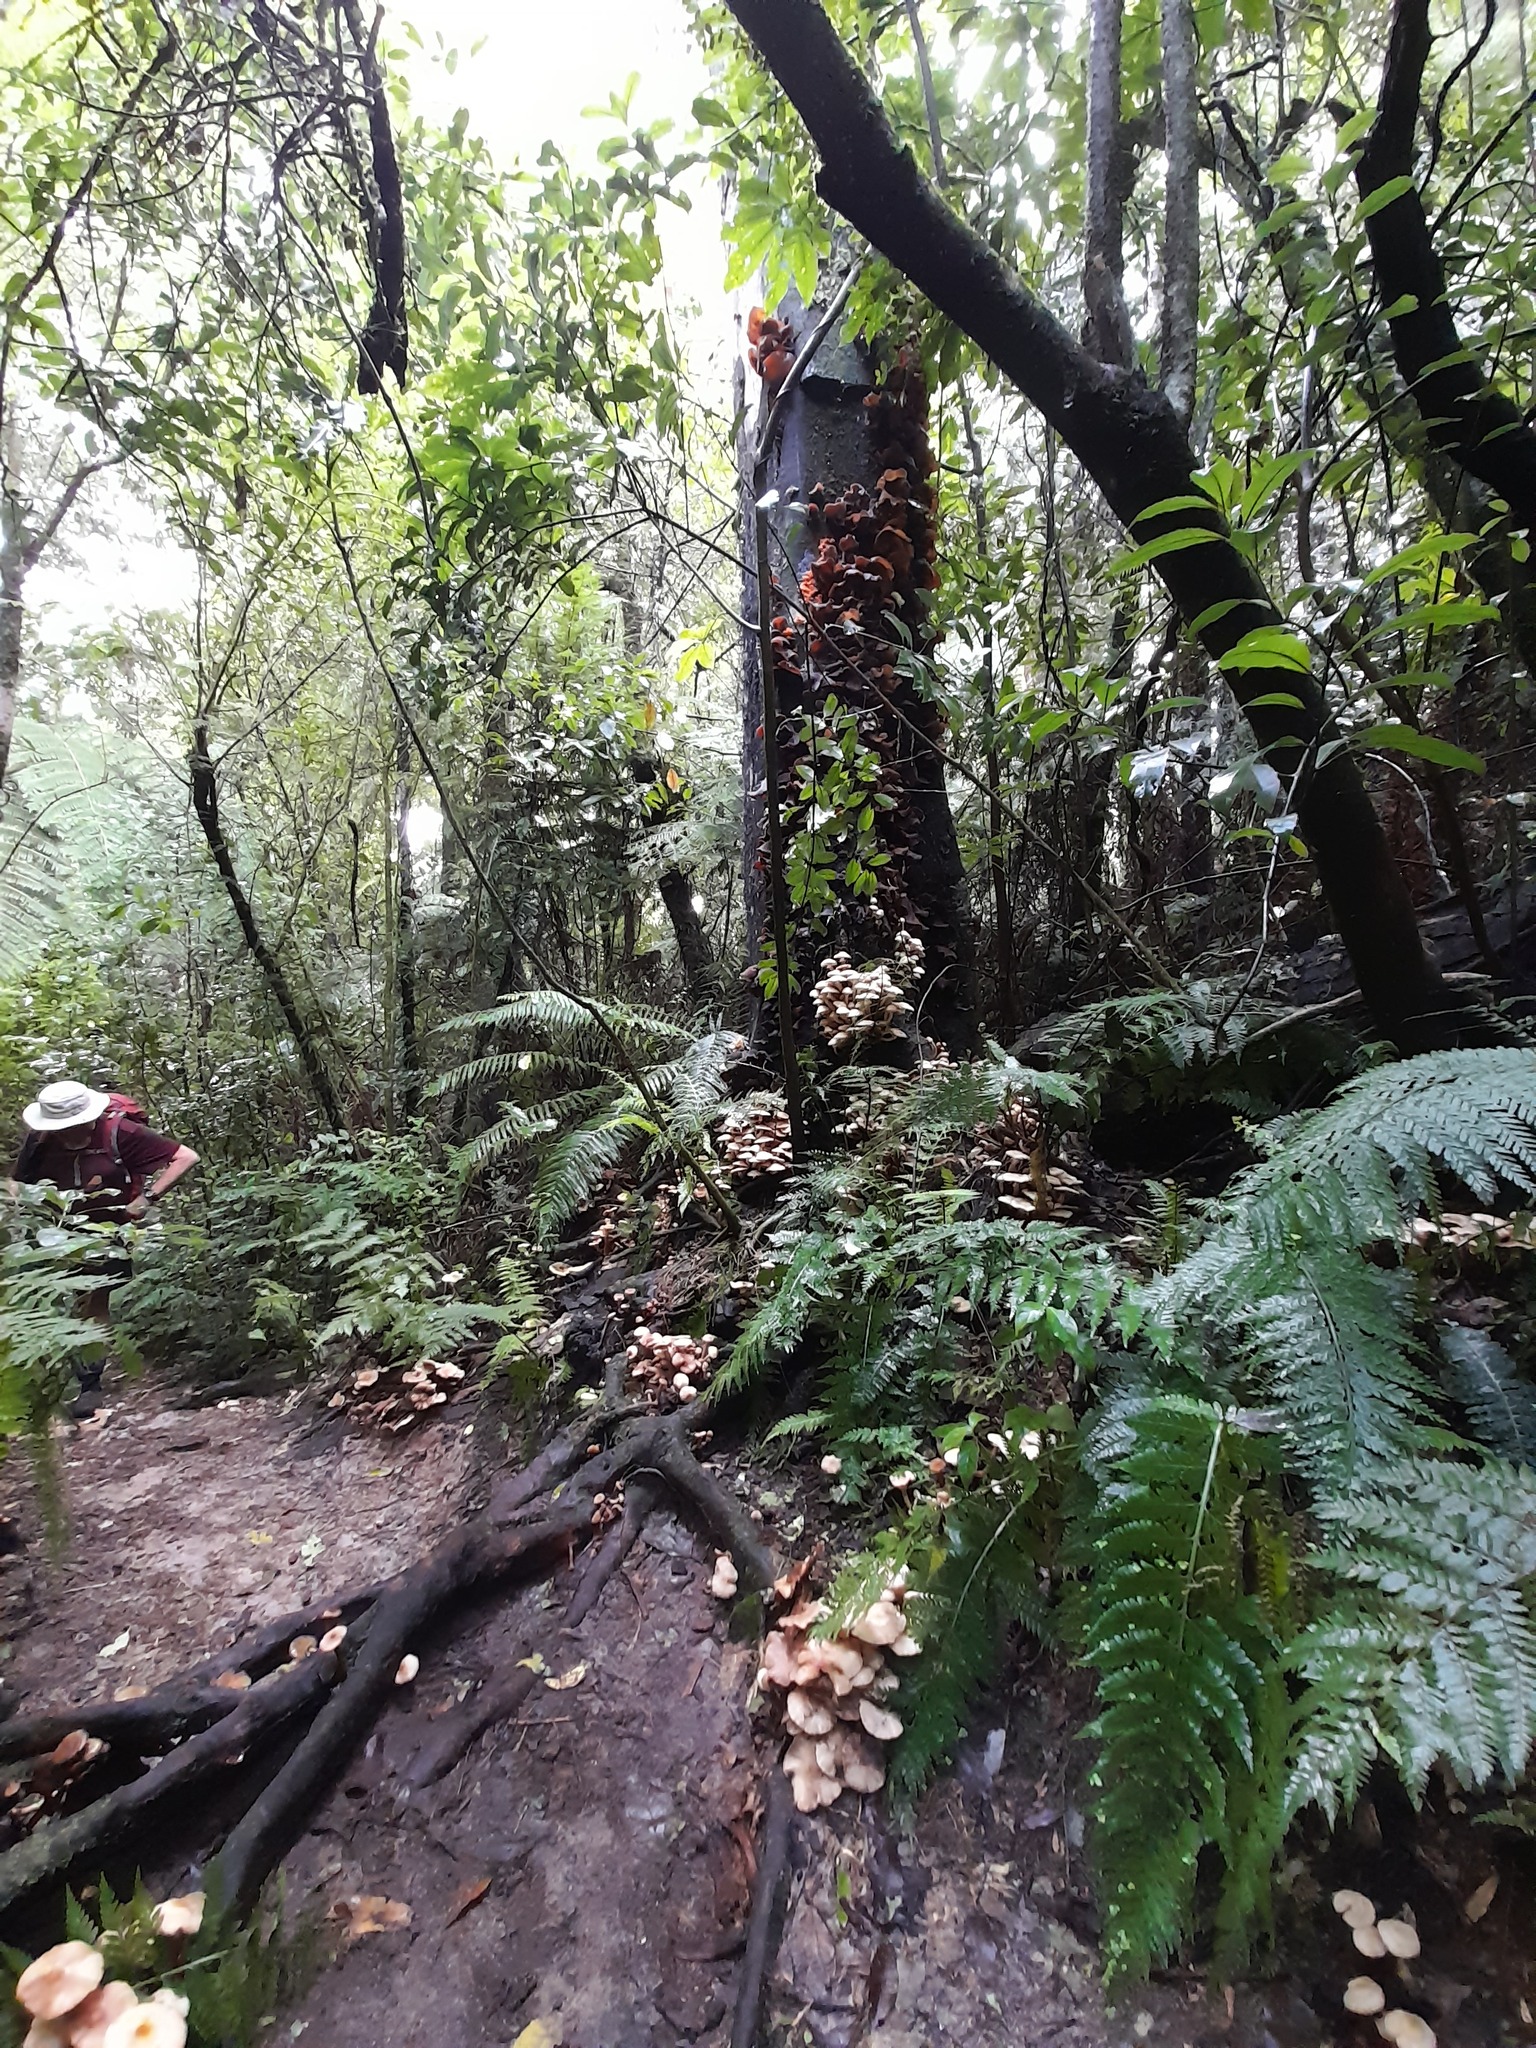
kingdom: Fungi
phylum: Basidiomycota
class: Agaricomycetes
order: Auriculariales
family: Auriculariaceae
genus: Auricularia
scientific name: Auricularia cornea
